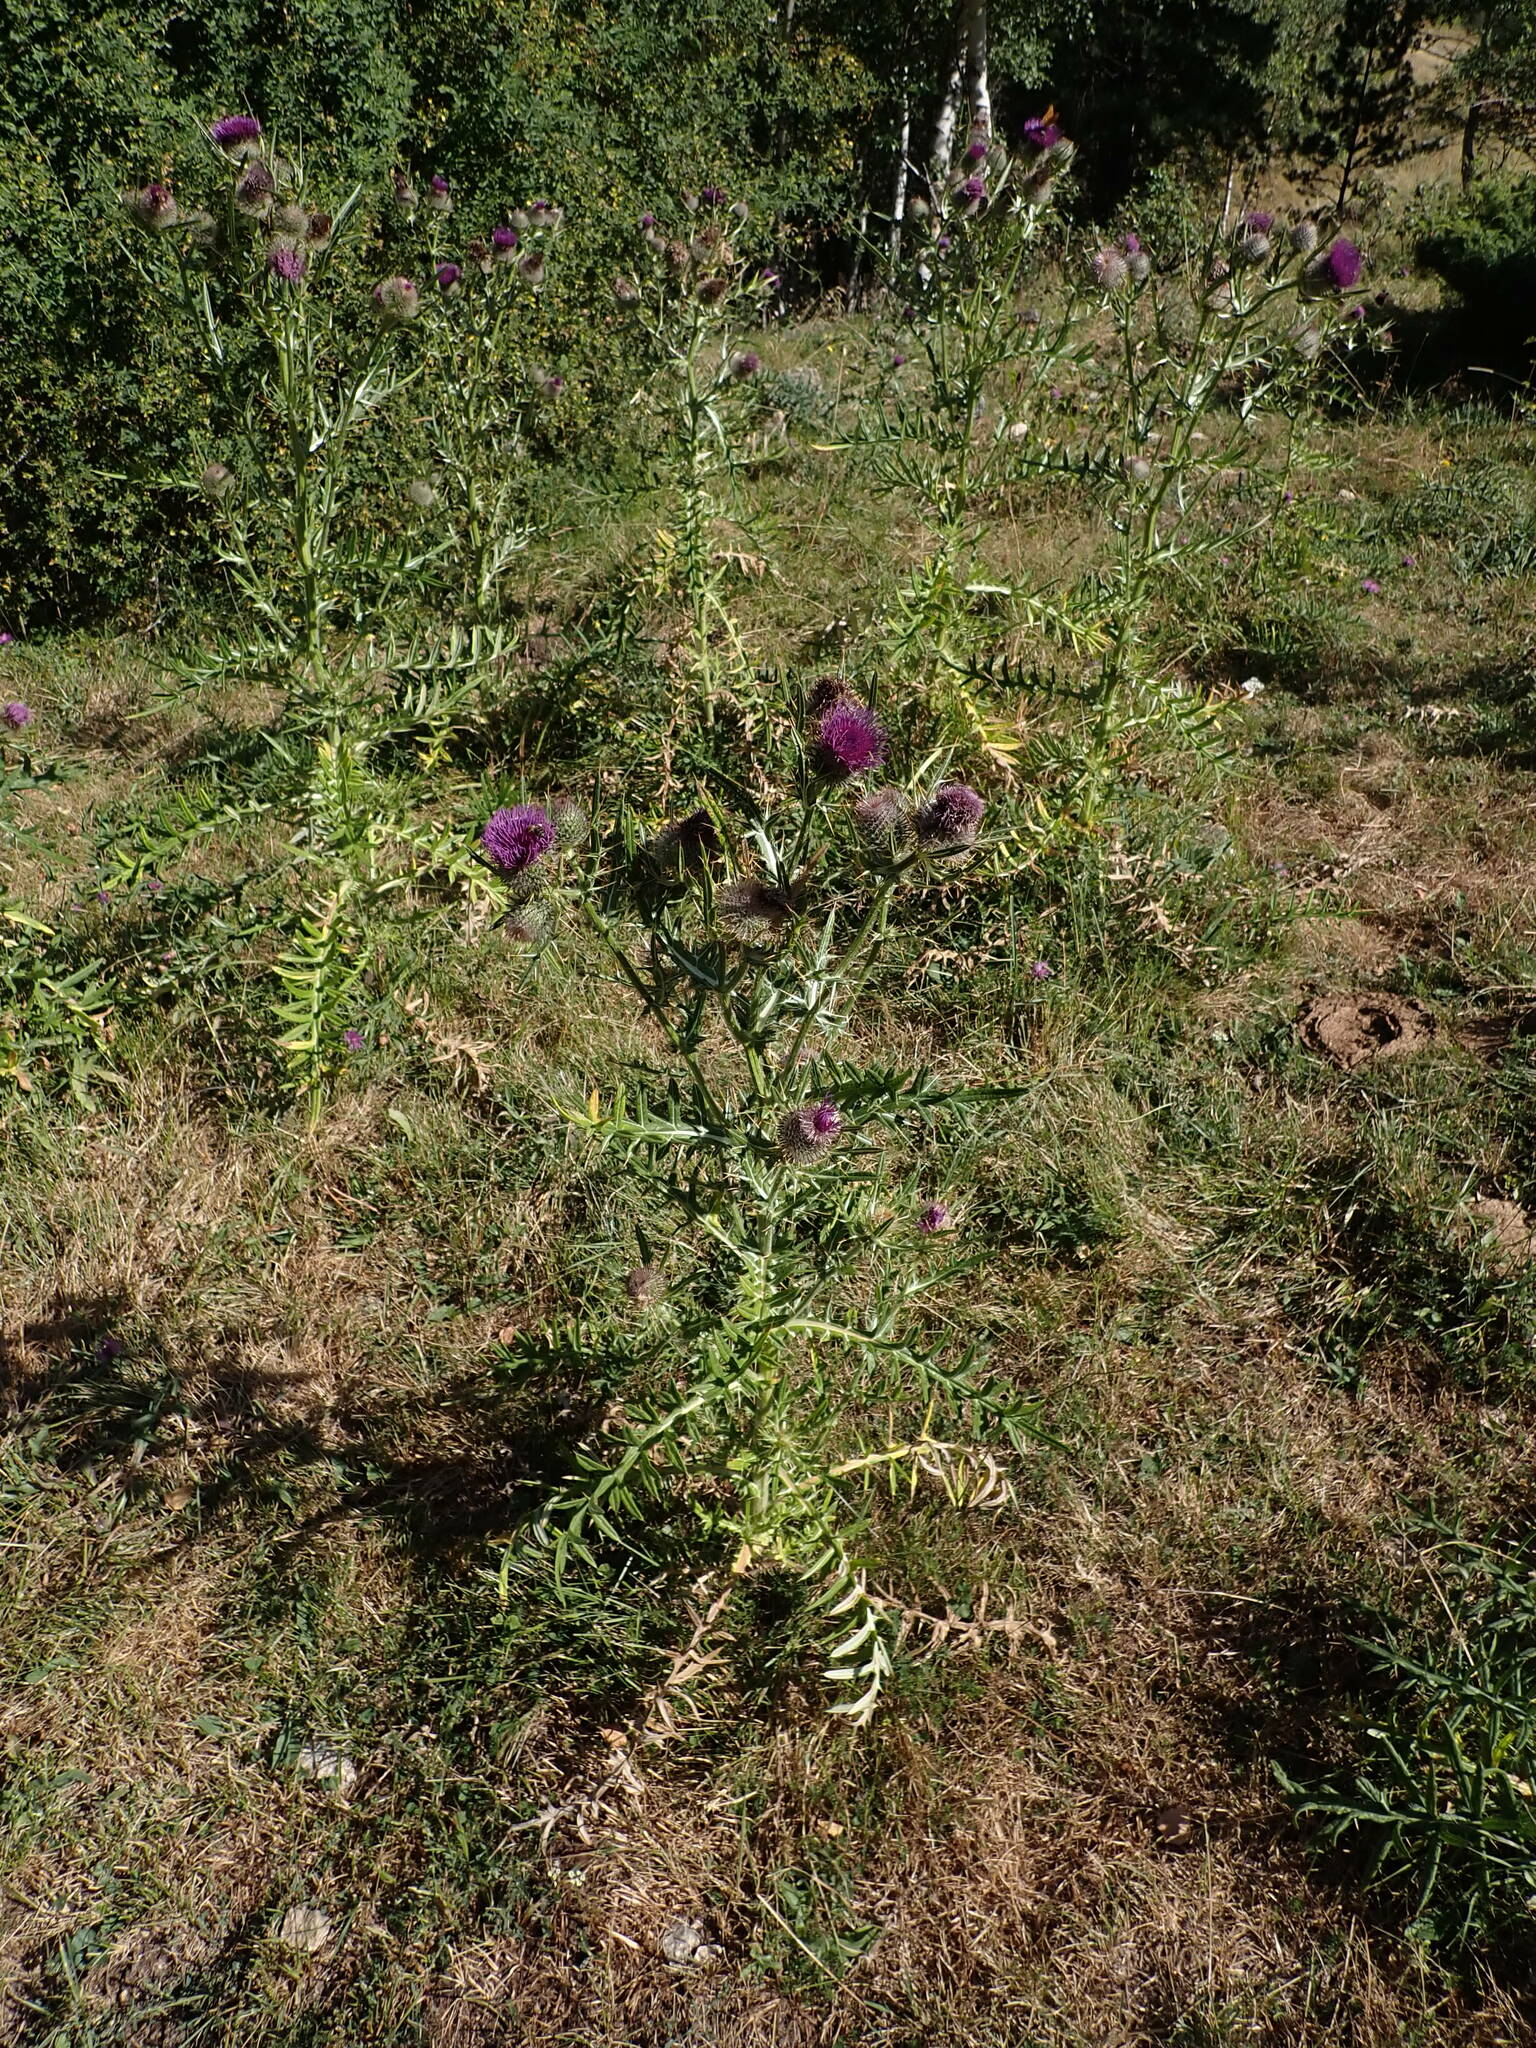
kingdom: Plantae
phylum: Tracheophyta
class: Magnoliopsida
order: Asterales
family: Asteraceae
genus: Lophiolepis
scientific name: Lophiolepis eriophora
